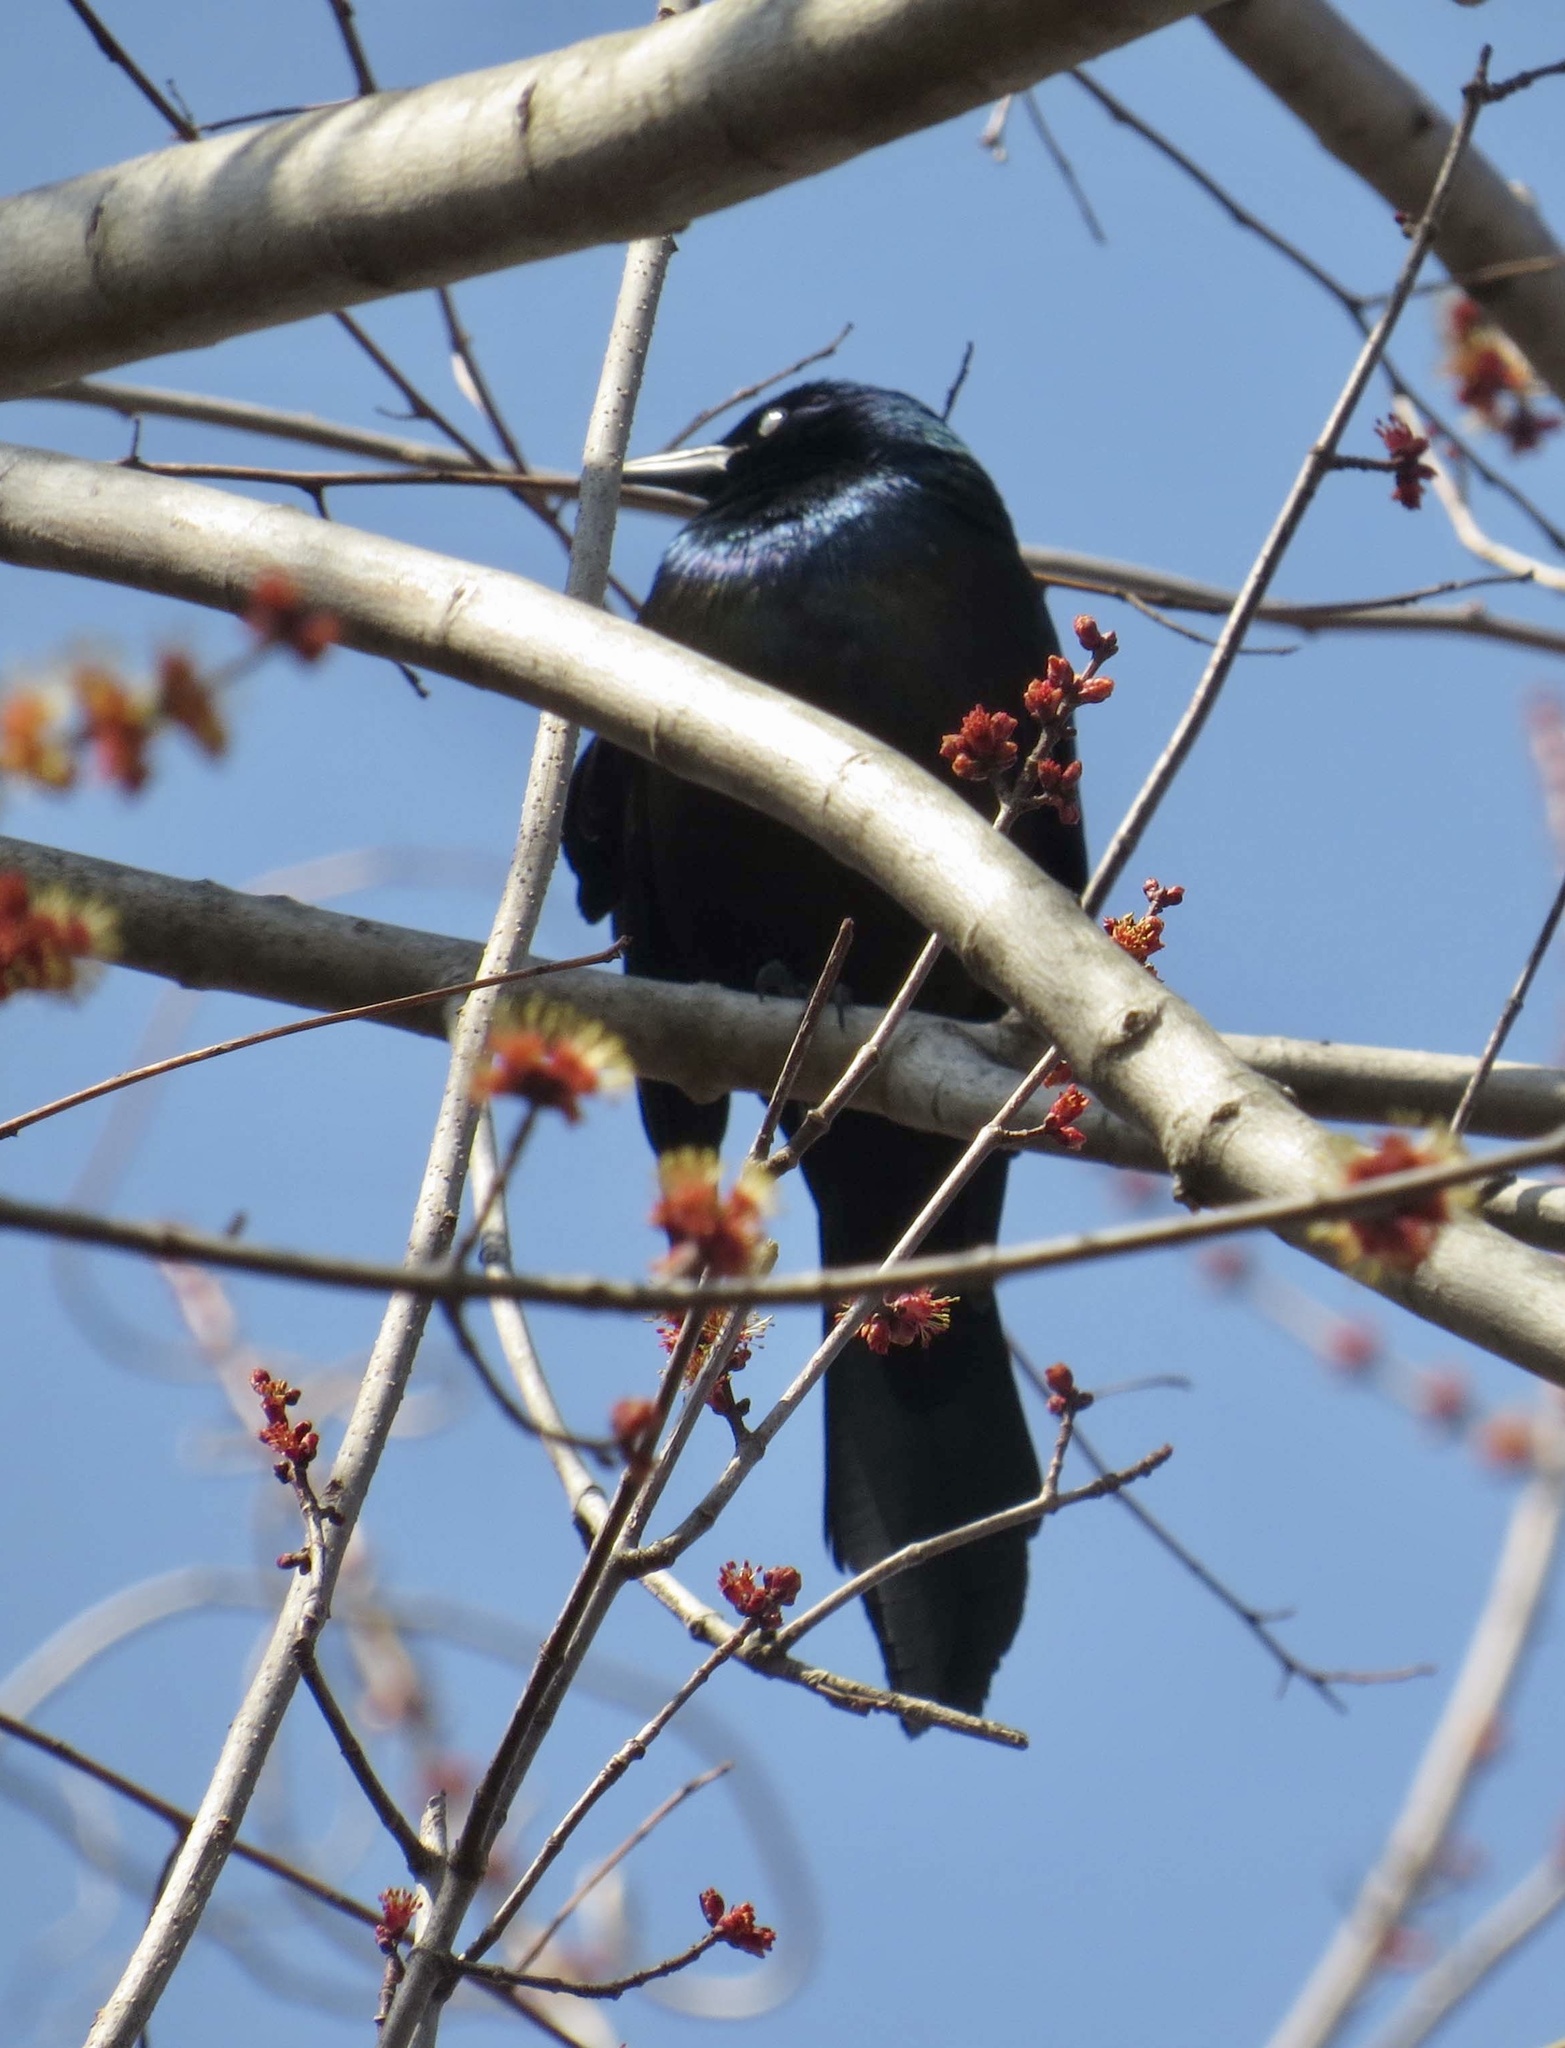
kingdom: Animalia
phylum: Chordata
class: Aves
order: Passeriformes
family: Icteridae
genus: Quiscalus
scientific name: Quiscalus quiscula
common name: Common grackle
